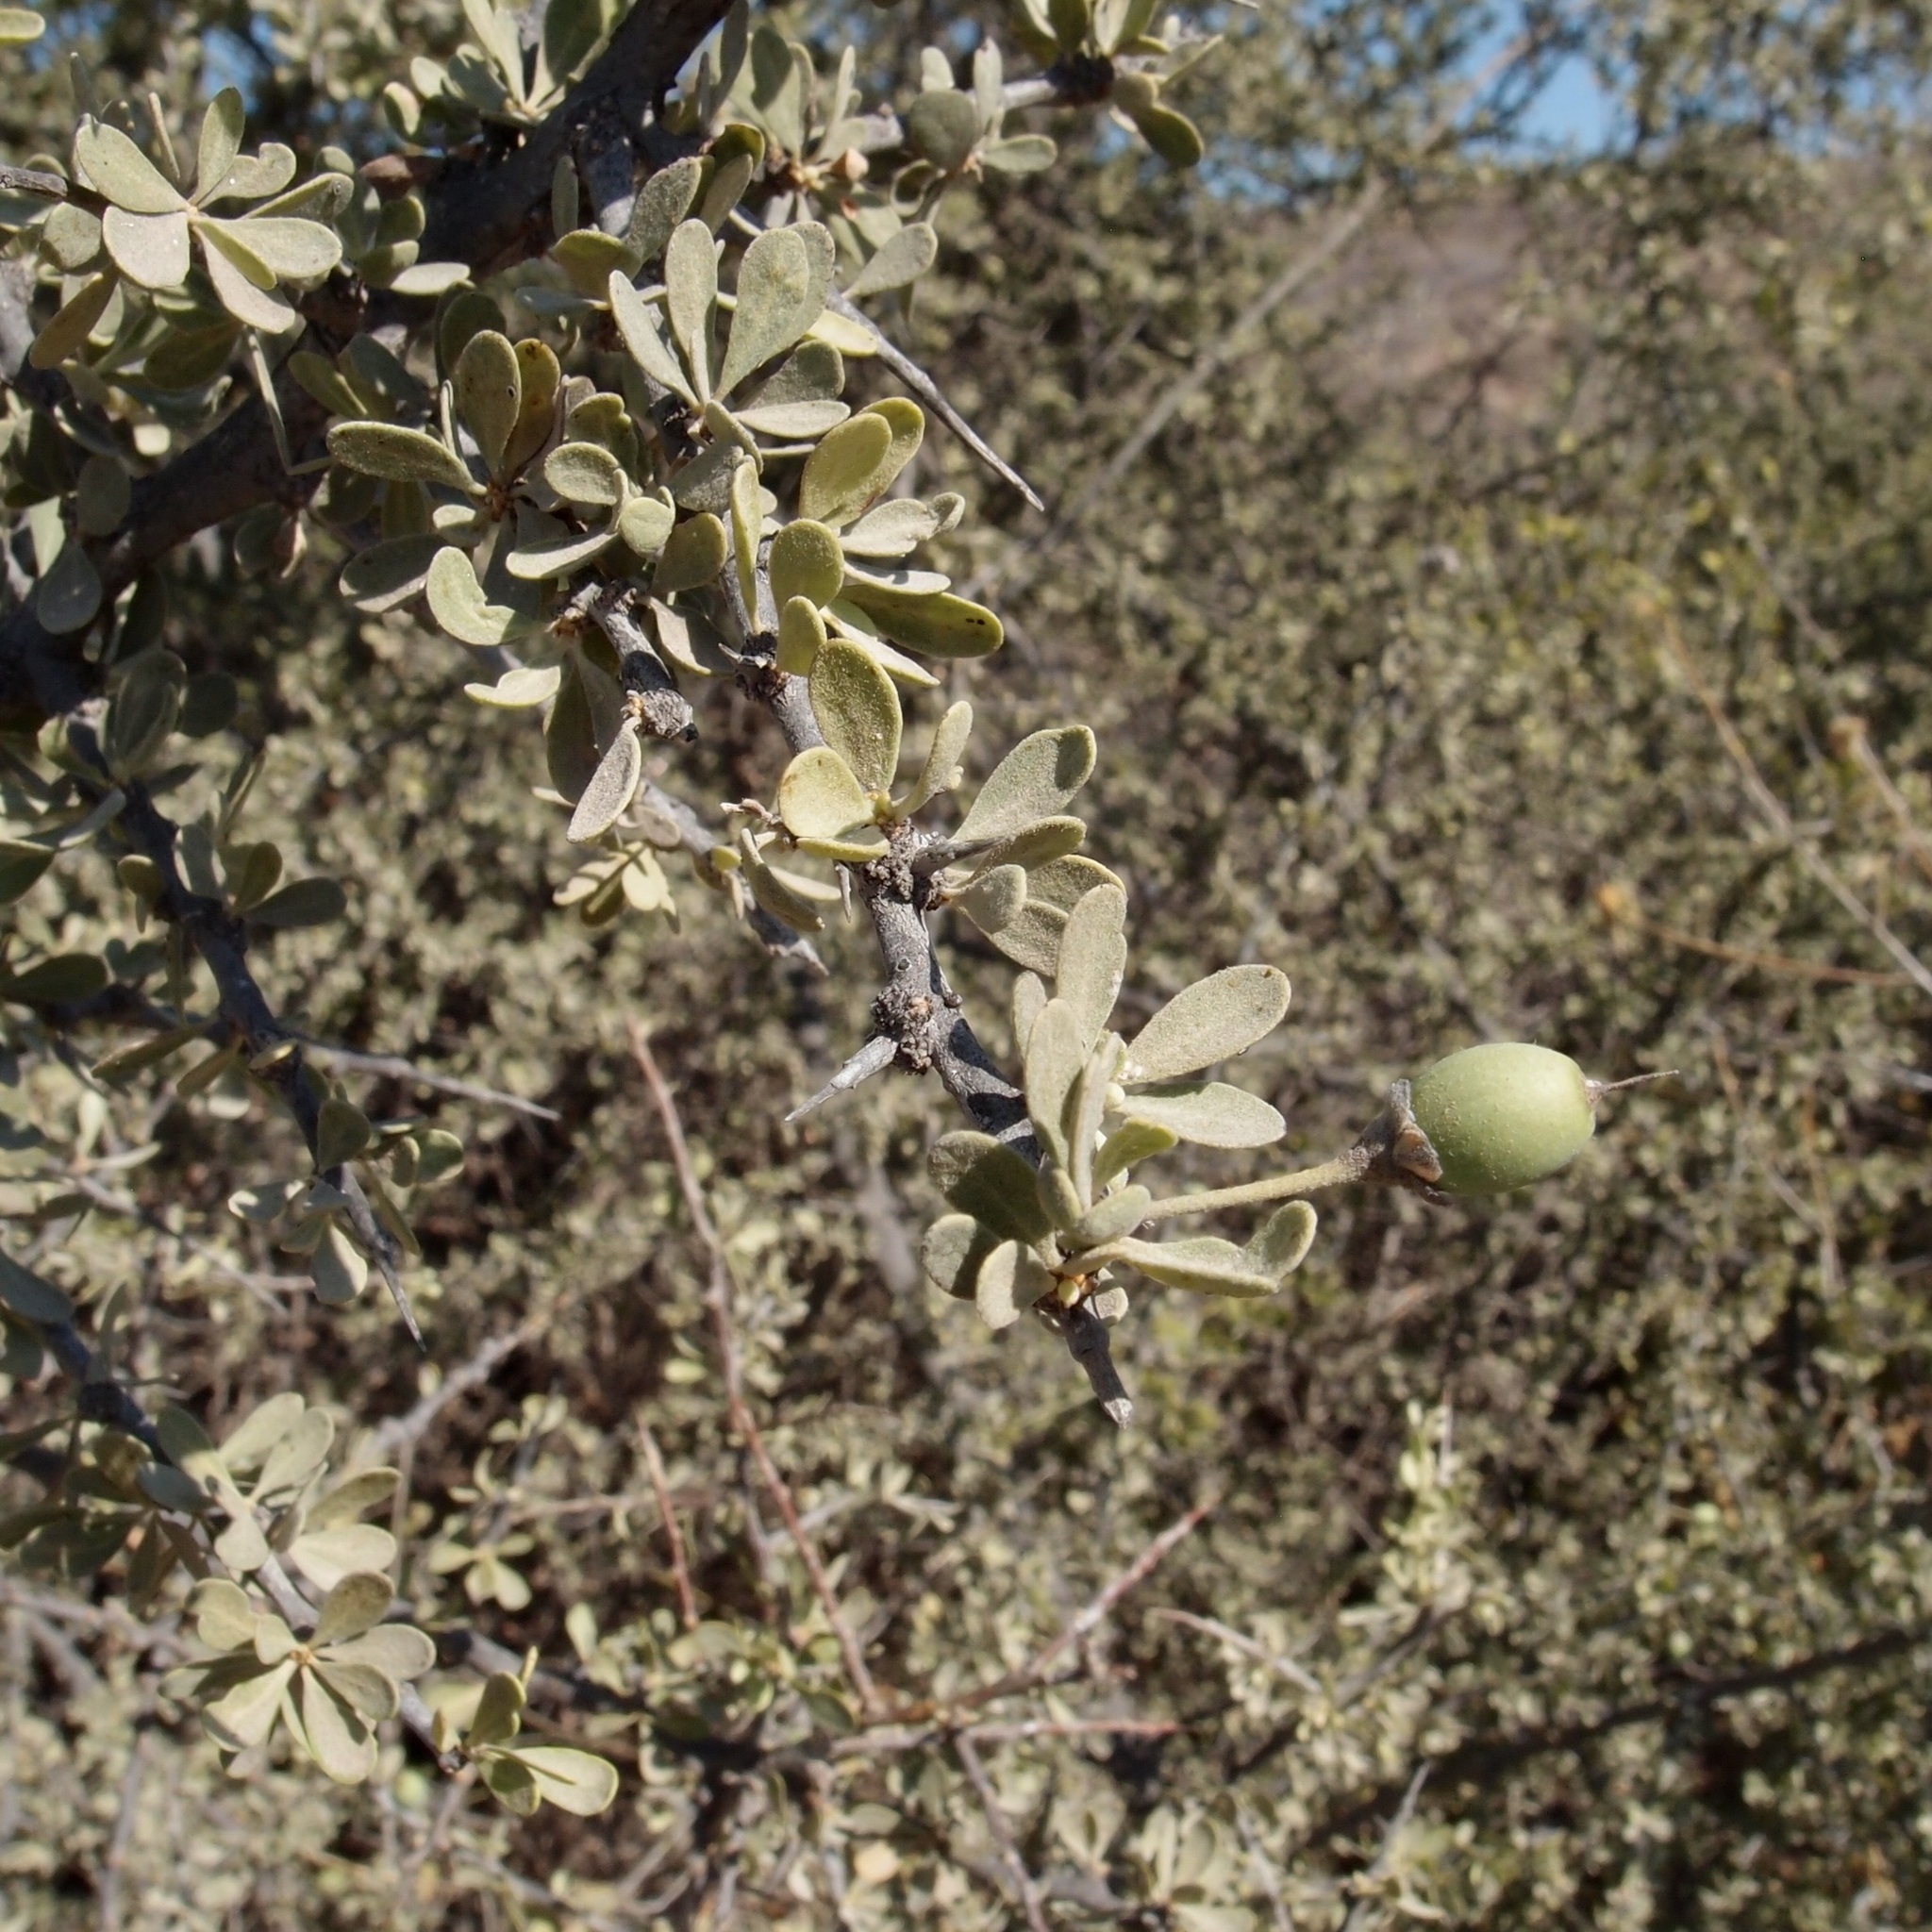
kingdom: Plantae
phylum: Tracheophyta
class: Magnoliopsida
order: Ericales
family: Sapotaceae
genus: Sideroxylon
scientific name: Sideroxylon occidentale
